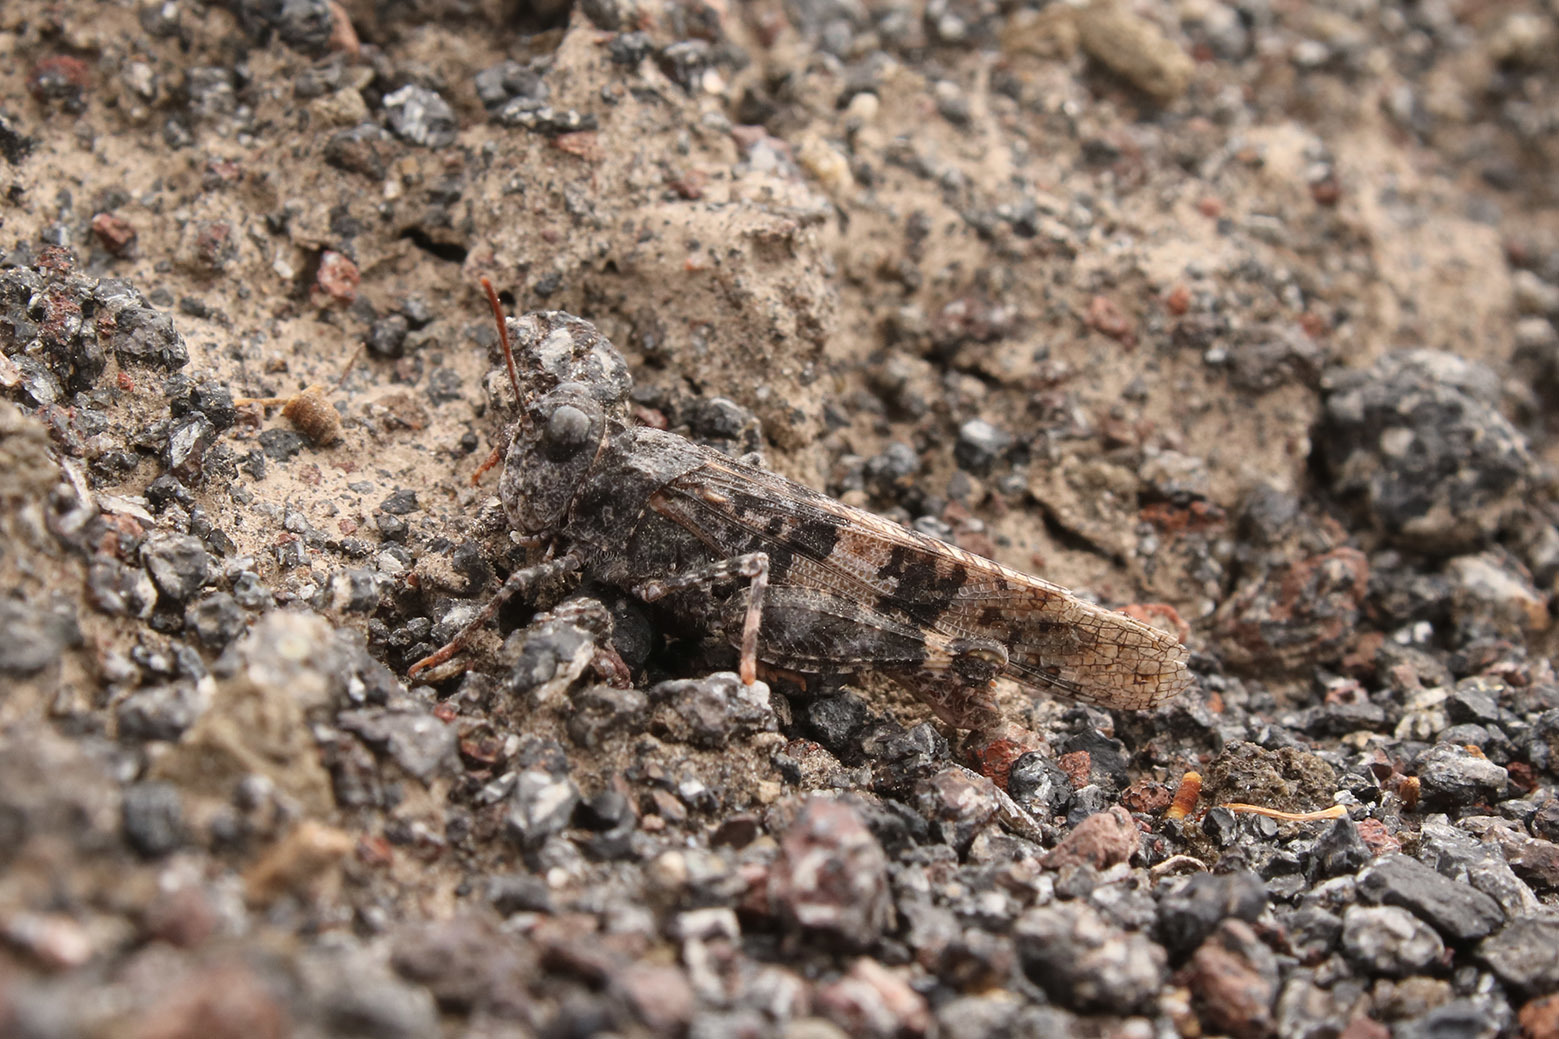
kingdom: Animalia
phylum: Arthropoda
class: Insecta
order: Orthoptera
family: Acrididae
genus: Trimerotropis
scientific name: Trimerotropis pallidipennis
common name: Pallid-winged grasshopper
